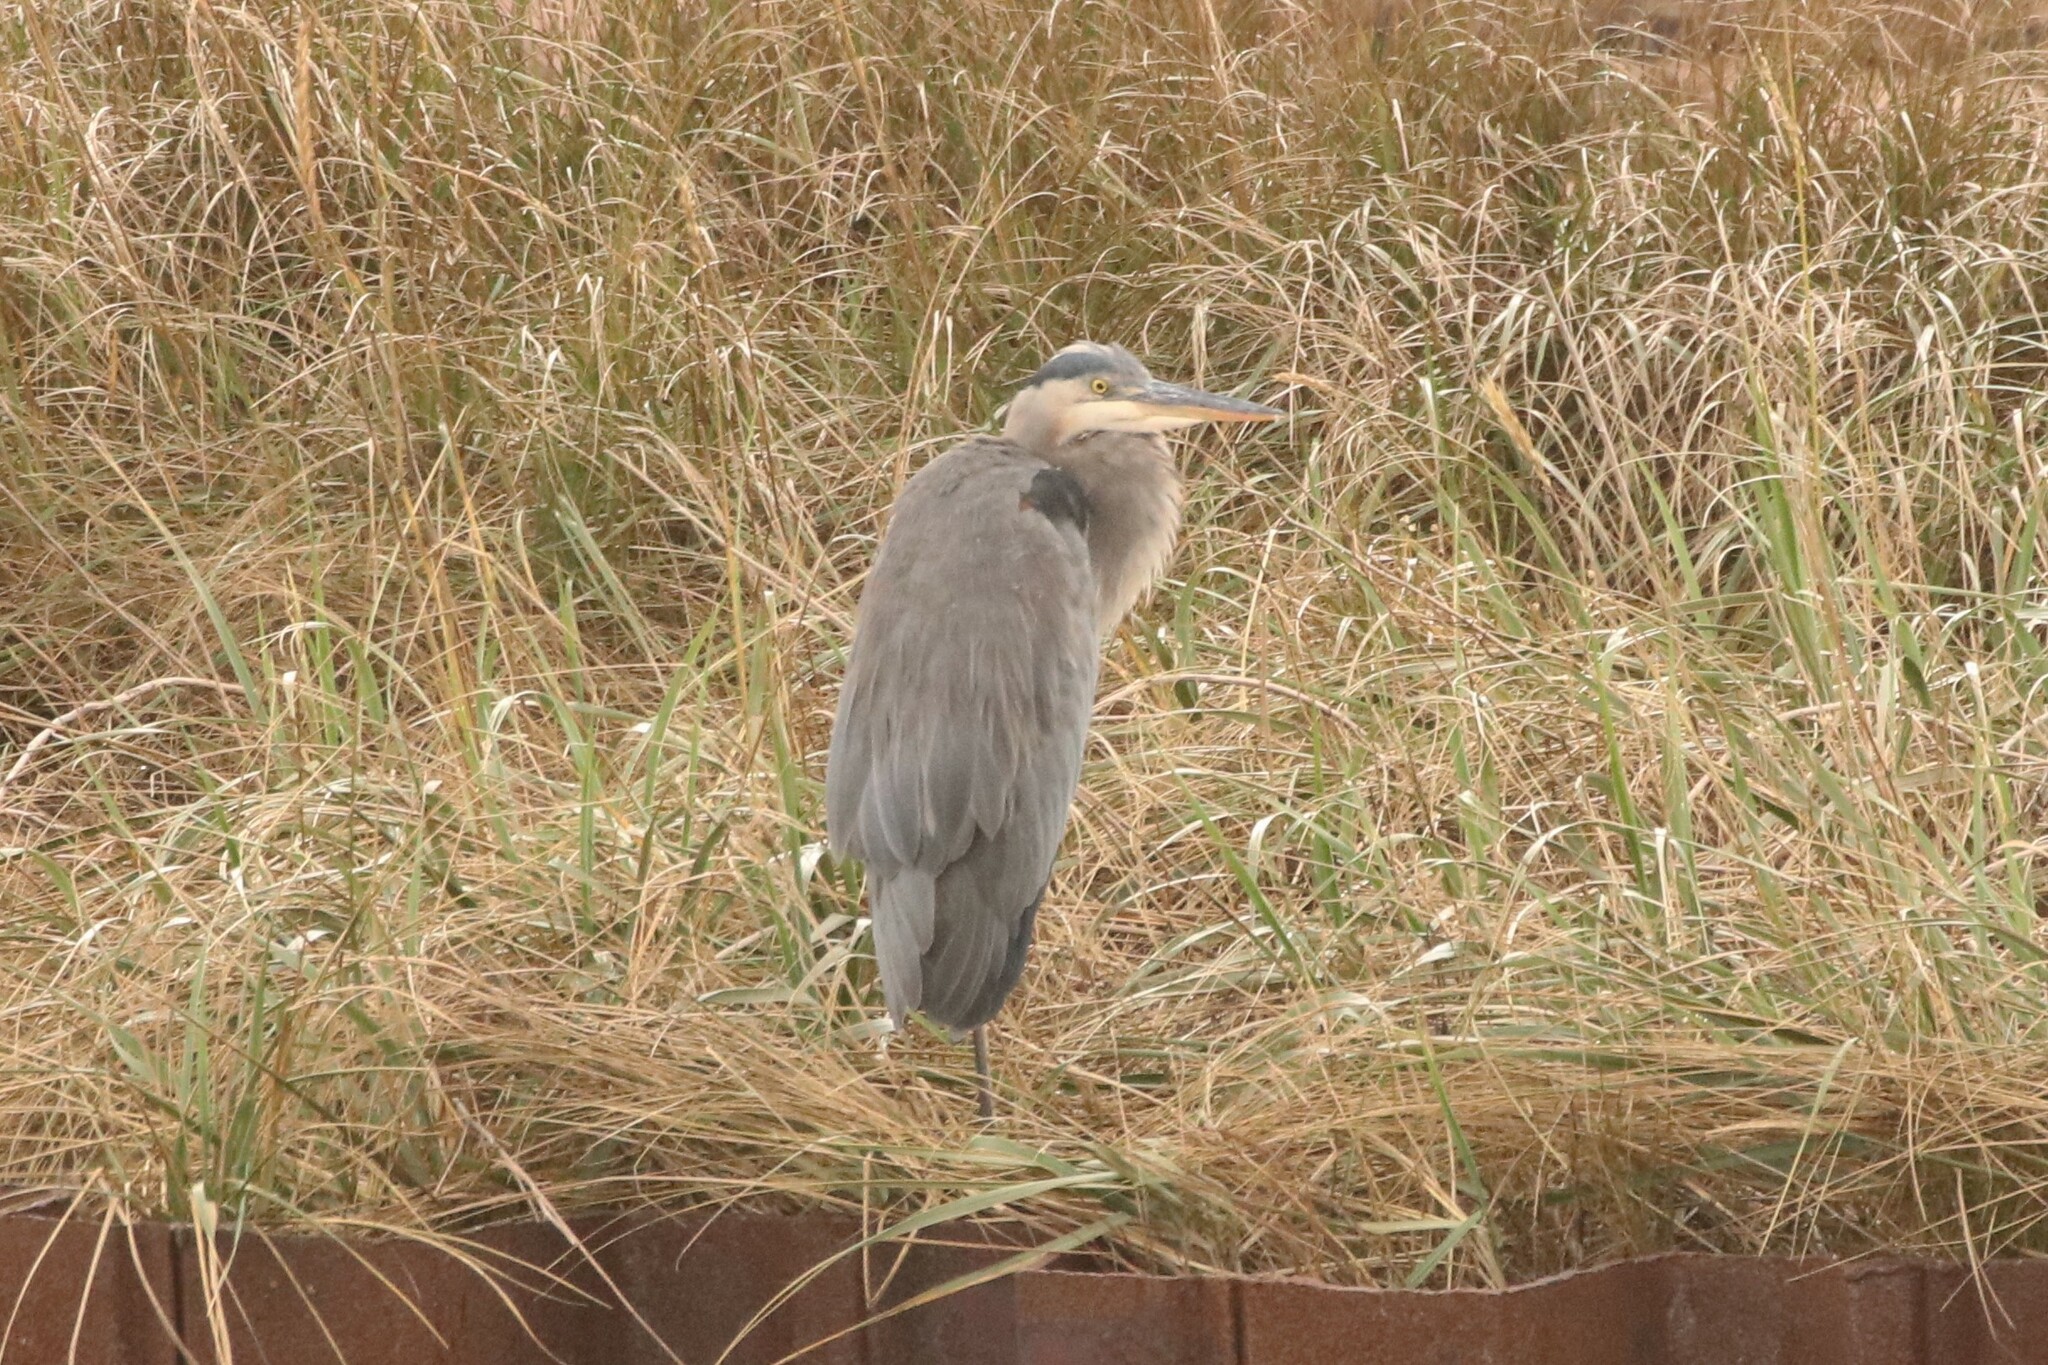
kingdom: Animalia
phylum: Chordata
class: Aves
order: Pelecaniformes
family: Ardeidae
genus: Ardea
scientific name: Ardea herodias
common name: Great blue heron
